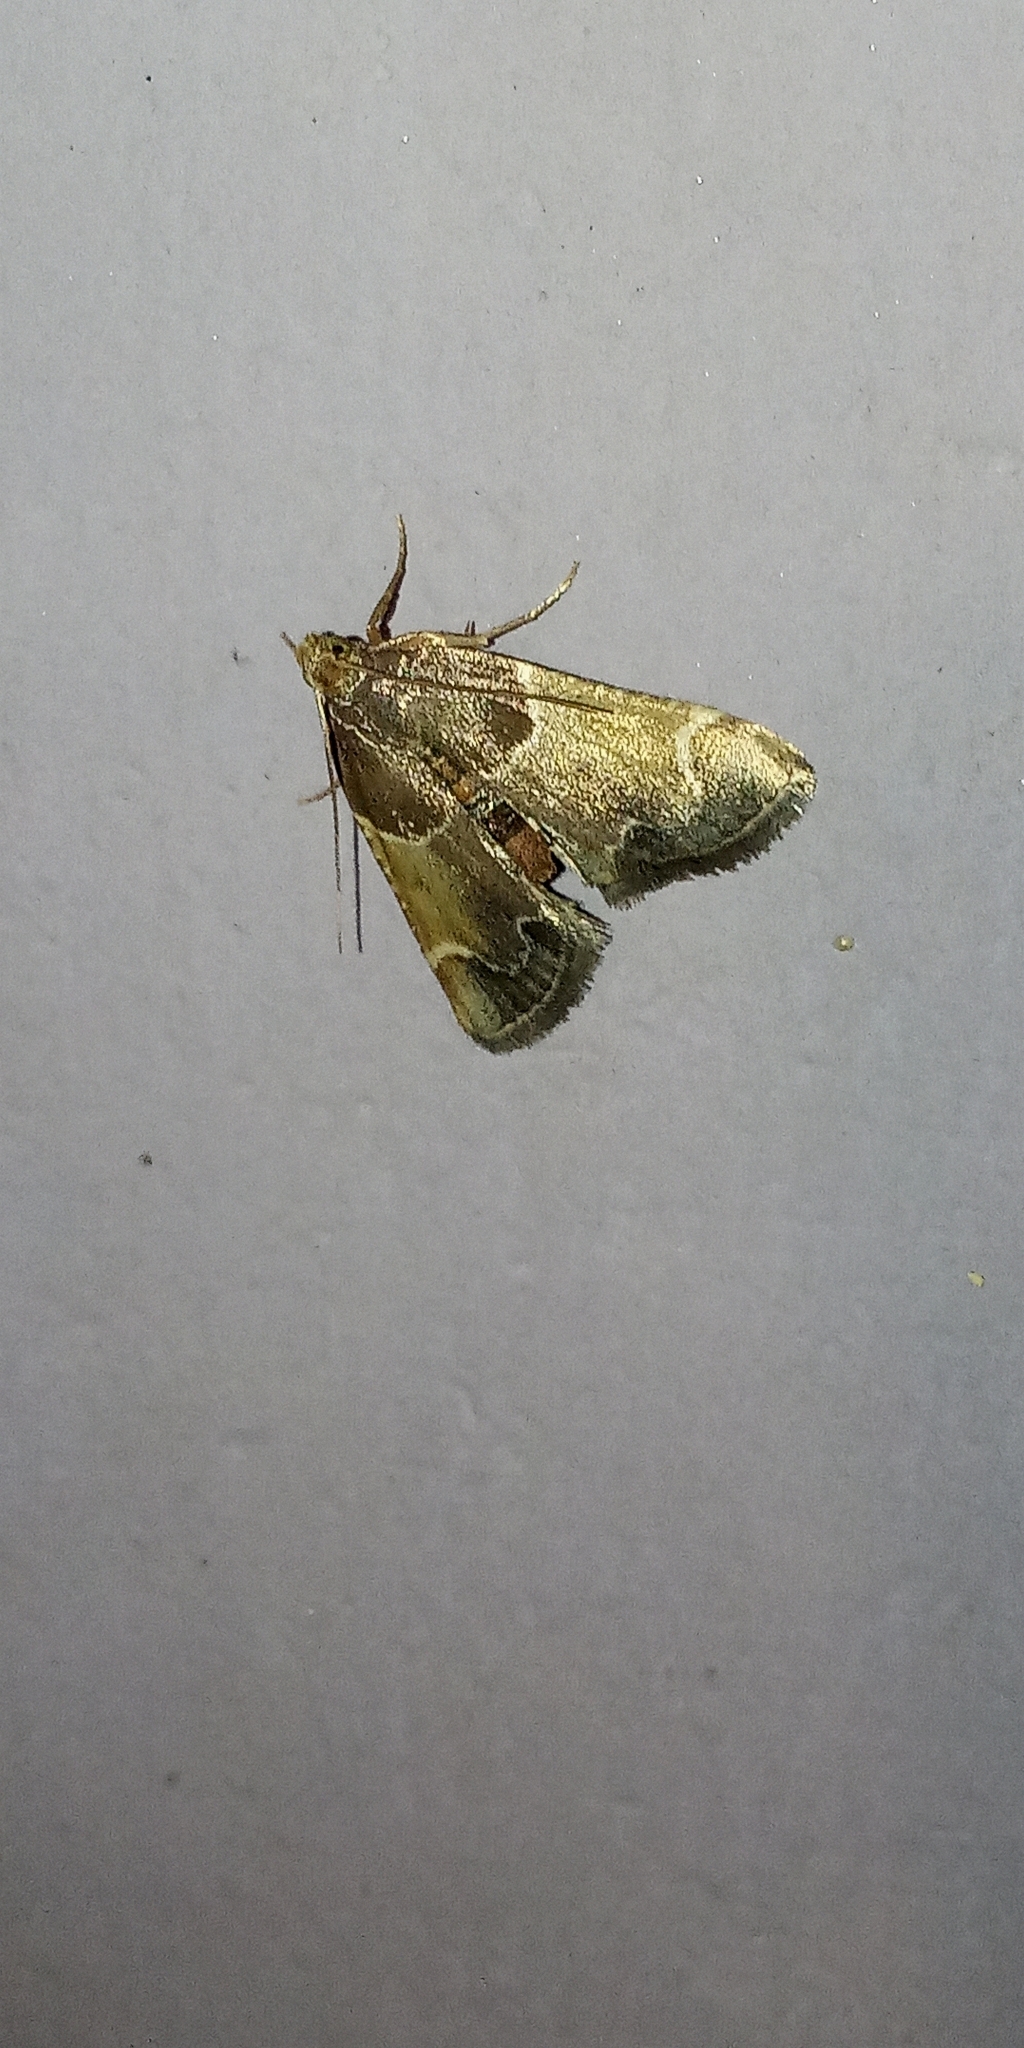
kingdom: Animalia
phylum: Arthropoda
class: Insecta
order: Lepidoptera
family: Pyralidae
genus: Pyralis
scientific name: Pyralis farinalis
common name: Meal moth
